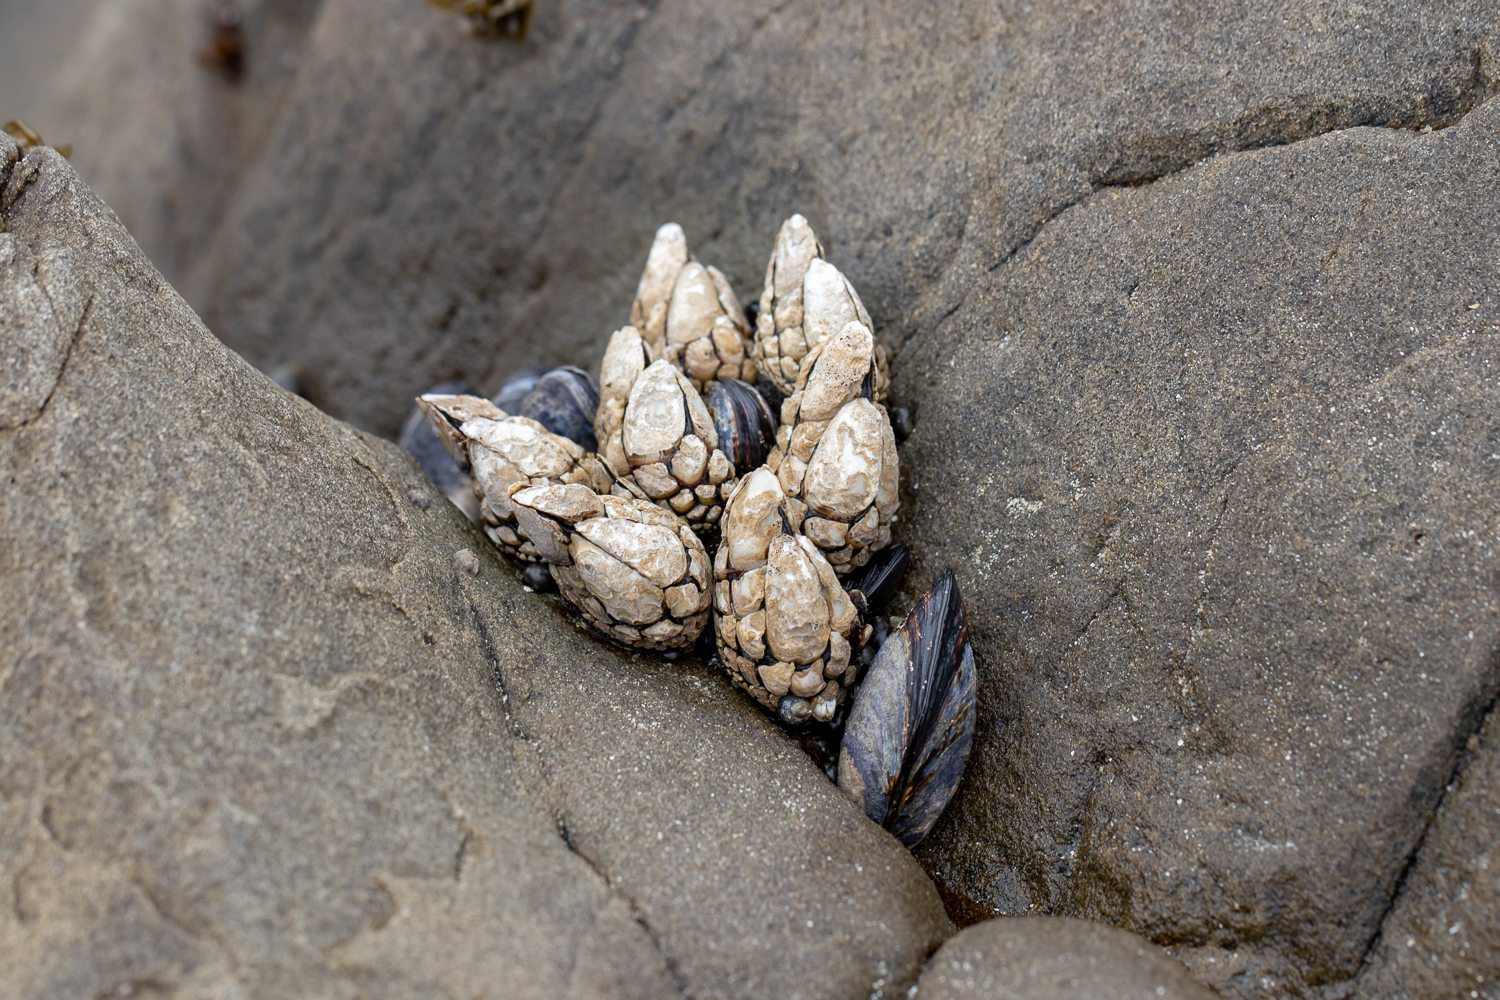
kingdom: Animalia
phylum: Arthropoda
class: Maxillopoda
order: Pedunculata
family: Pollicipedidae
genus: Pollicipes
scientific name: Pollicipes polymerus
